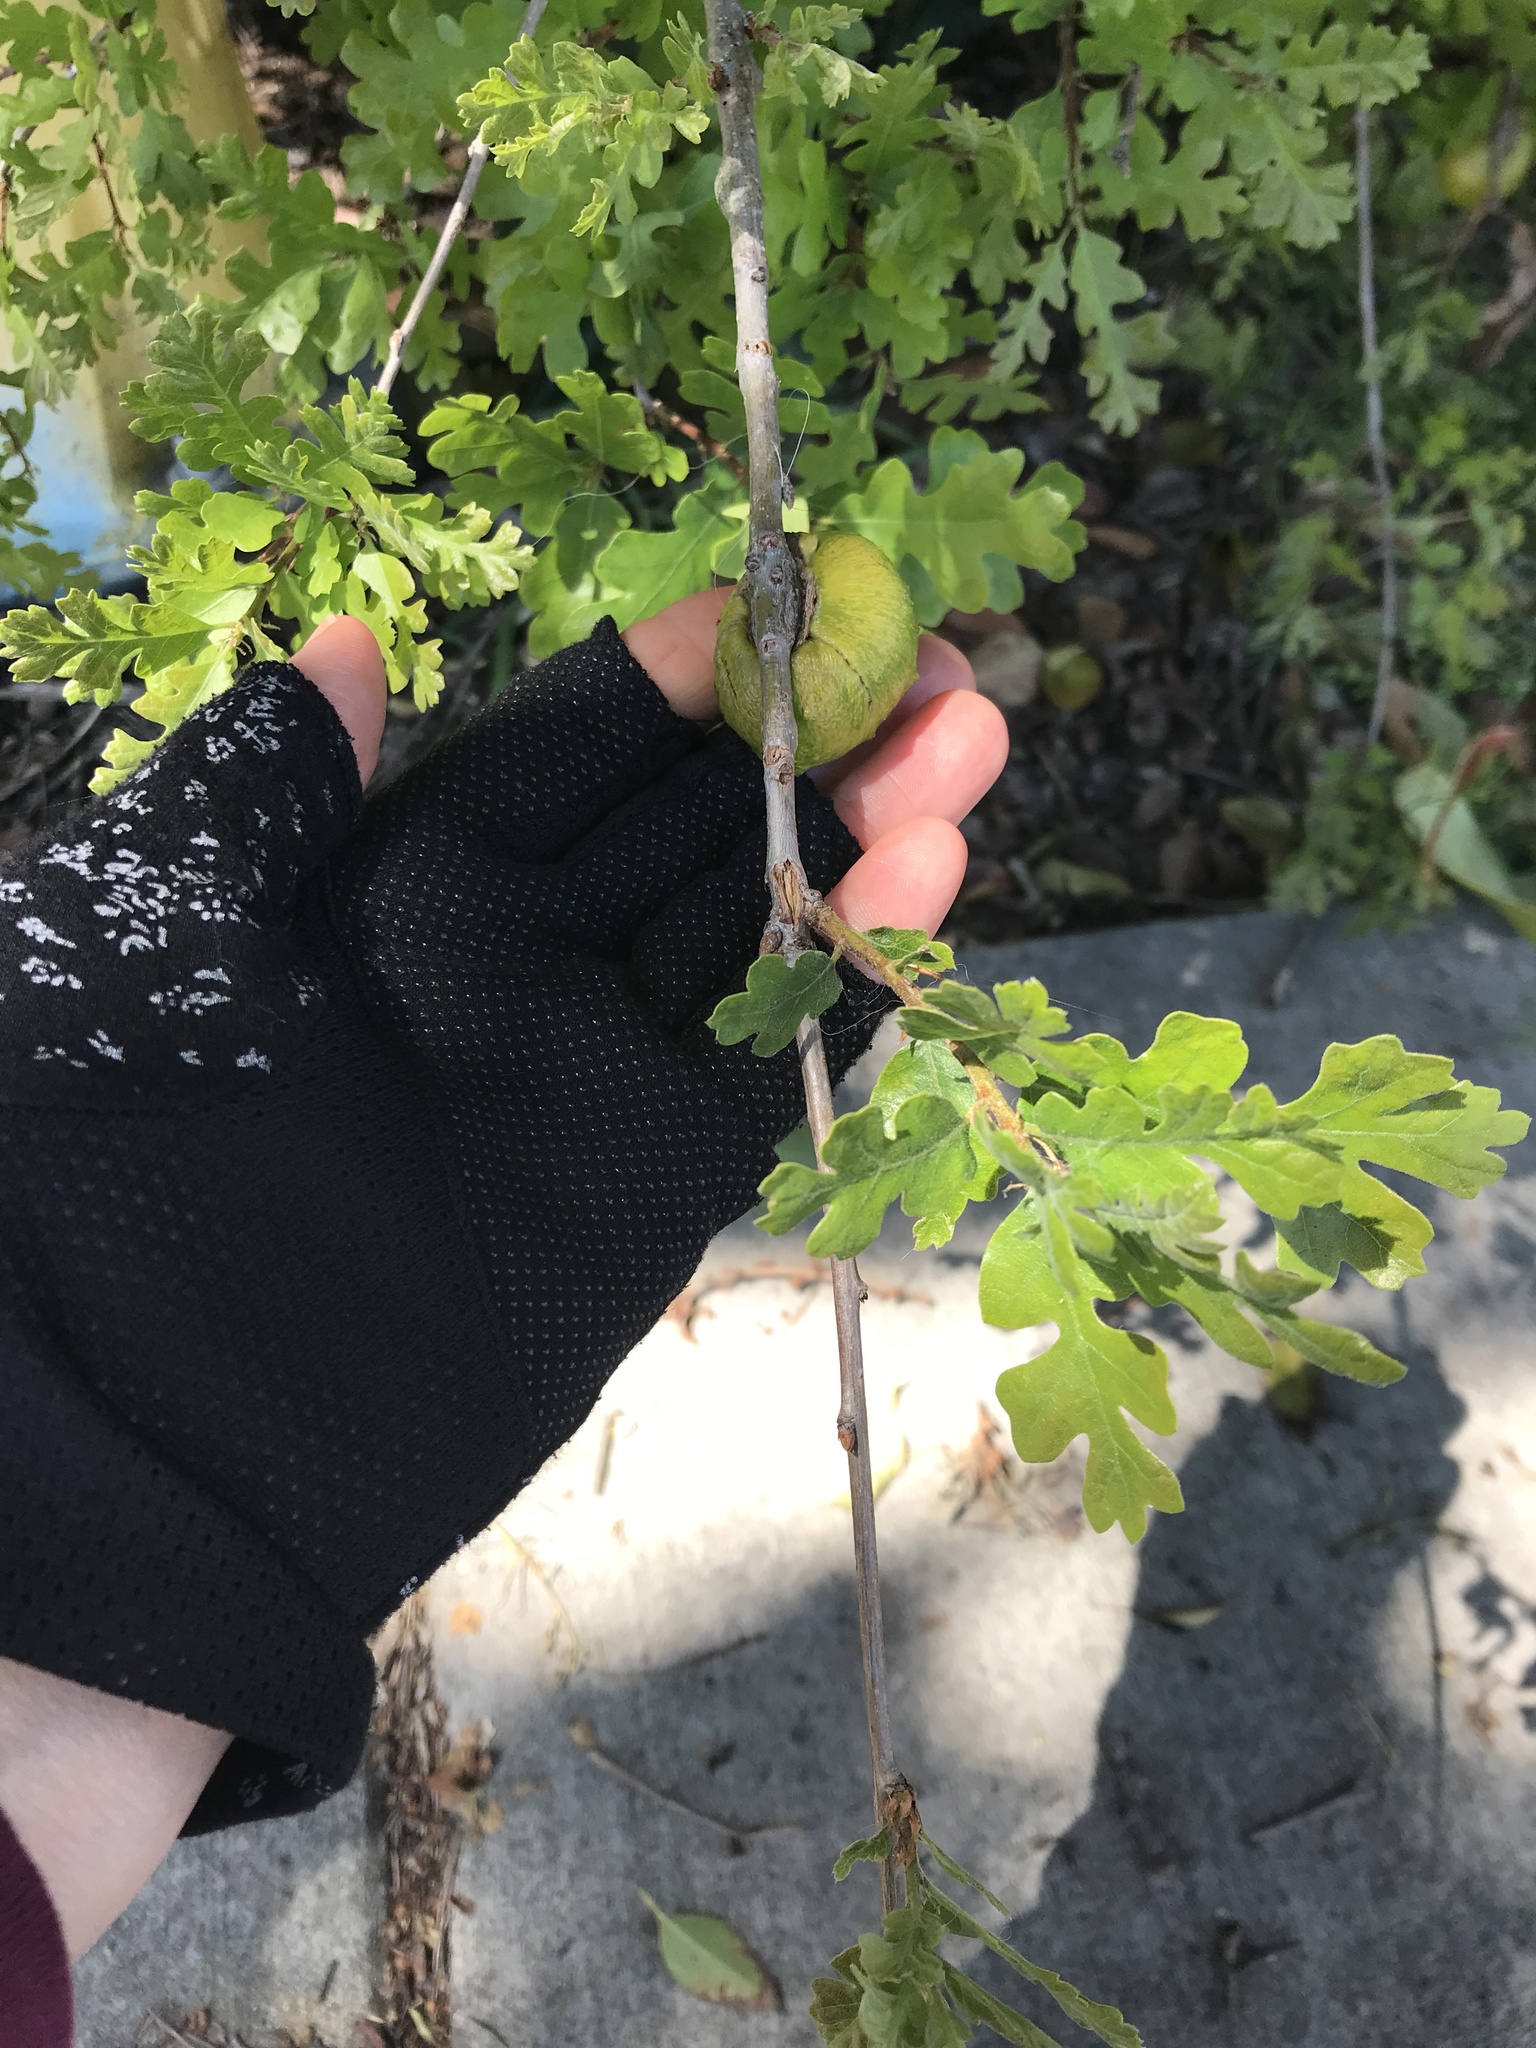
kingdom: Animalia
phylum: Arthropoda
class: Insecta
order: Hymenoptera
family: Cynipidae
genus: Andricus
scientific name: Andricus quercuscalifornicus
